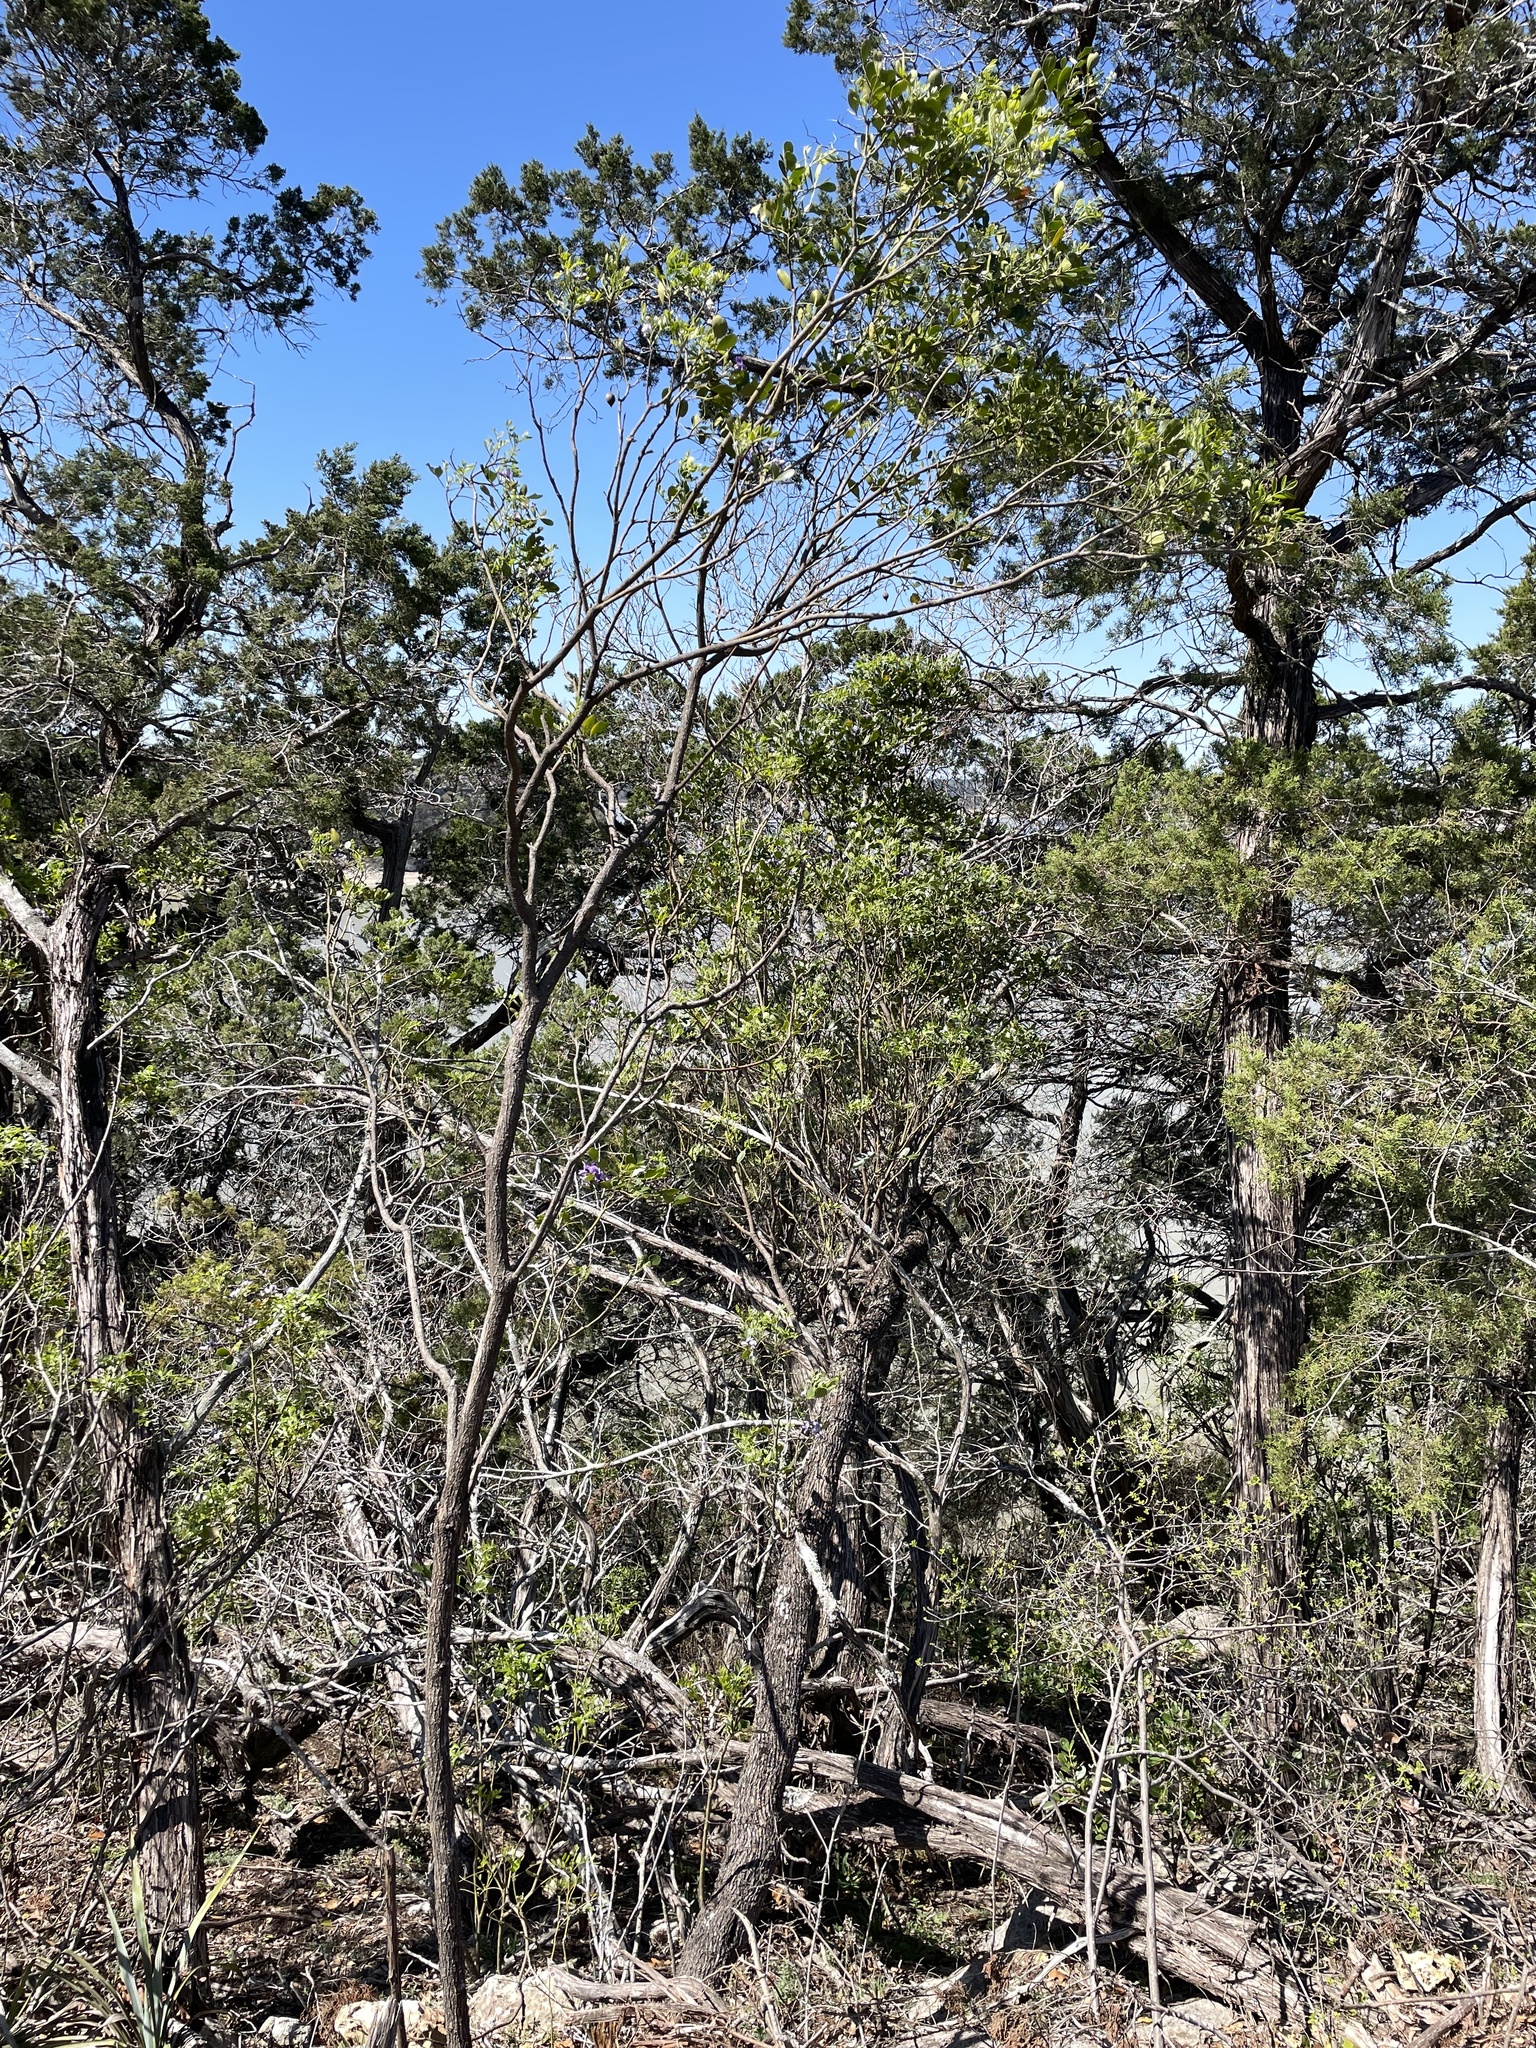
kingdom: Plantae
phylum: Tracheophyta
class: Magnoliopsida
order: Fabales
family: Fabaceae
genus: Dermatophyllum
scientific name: Dermatophyllum secundiflorum
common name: Texas-mountain-laurel
